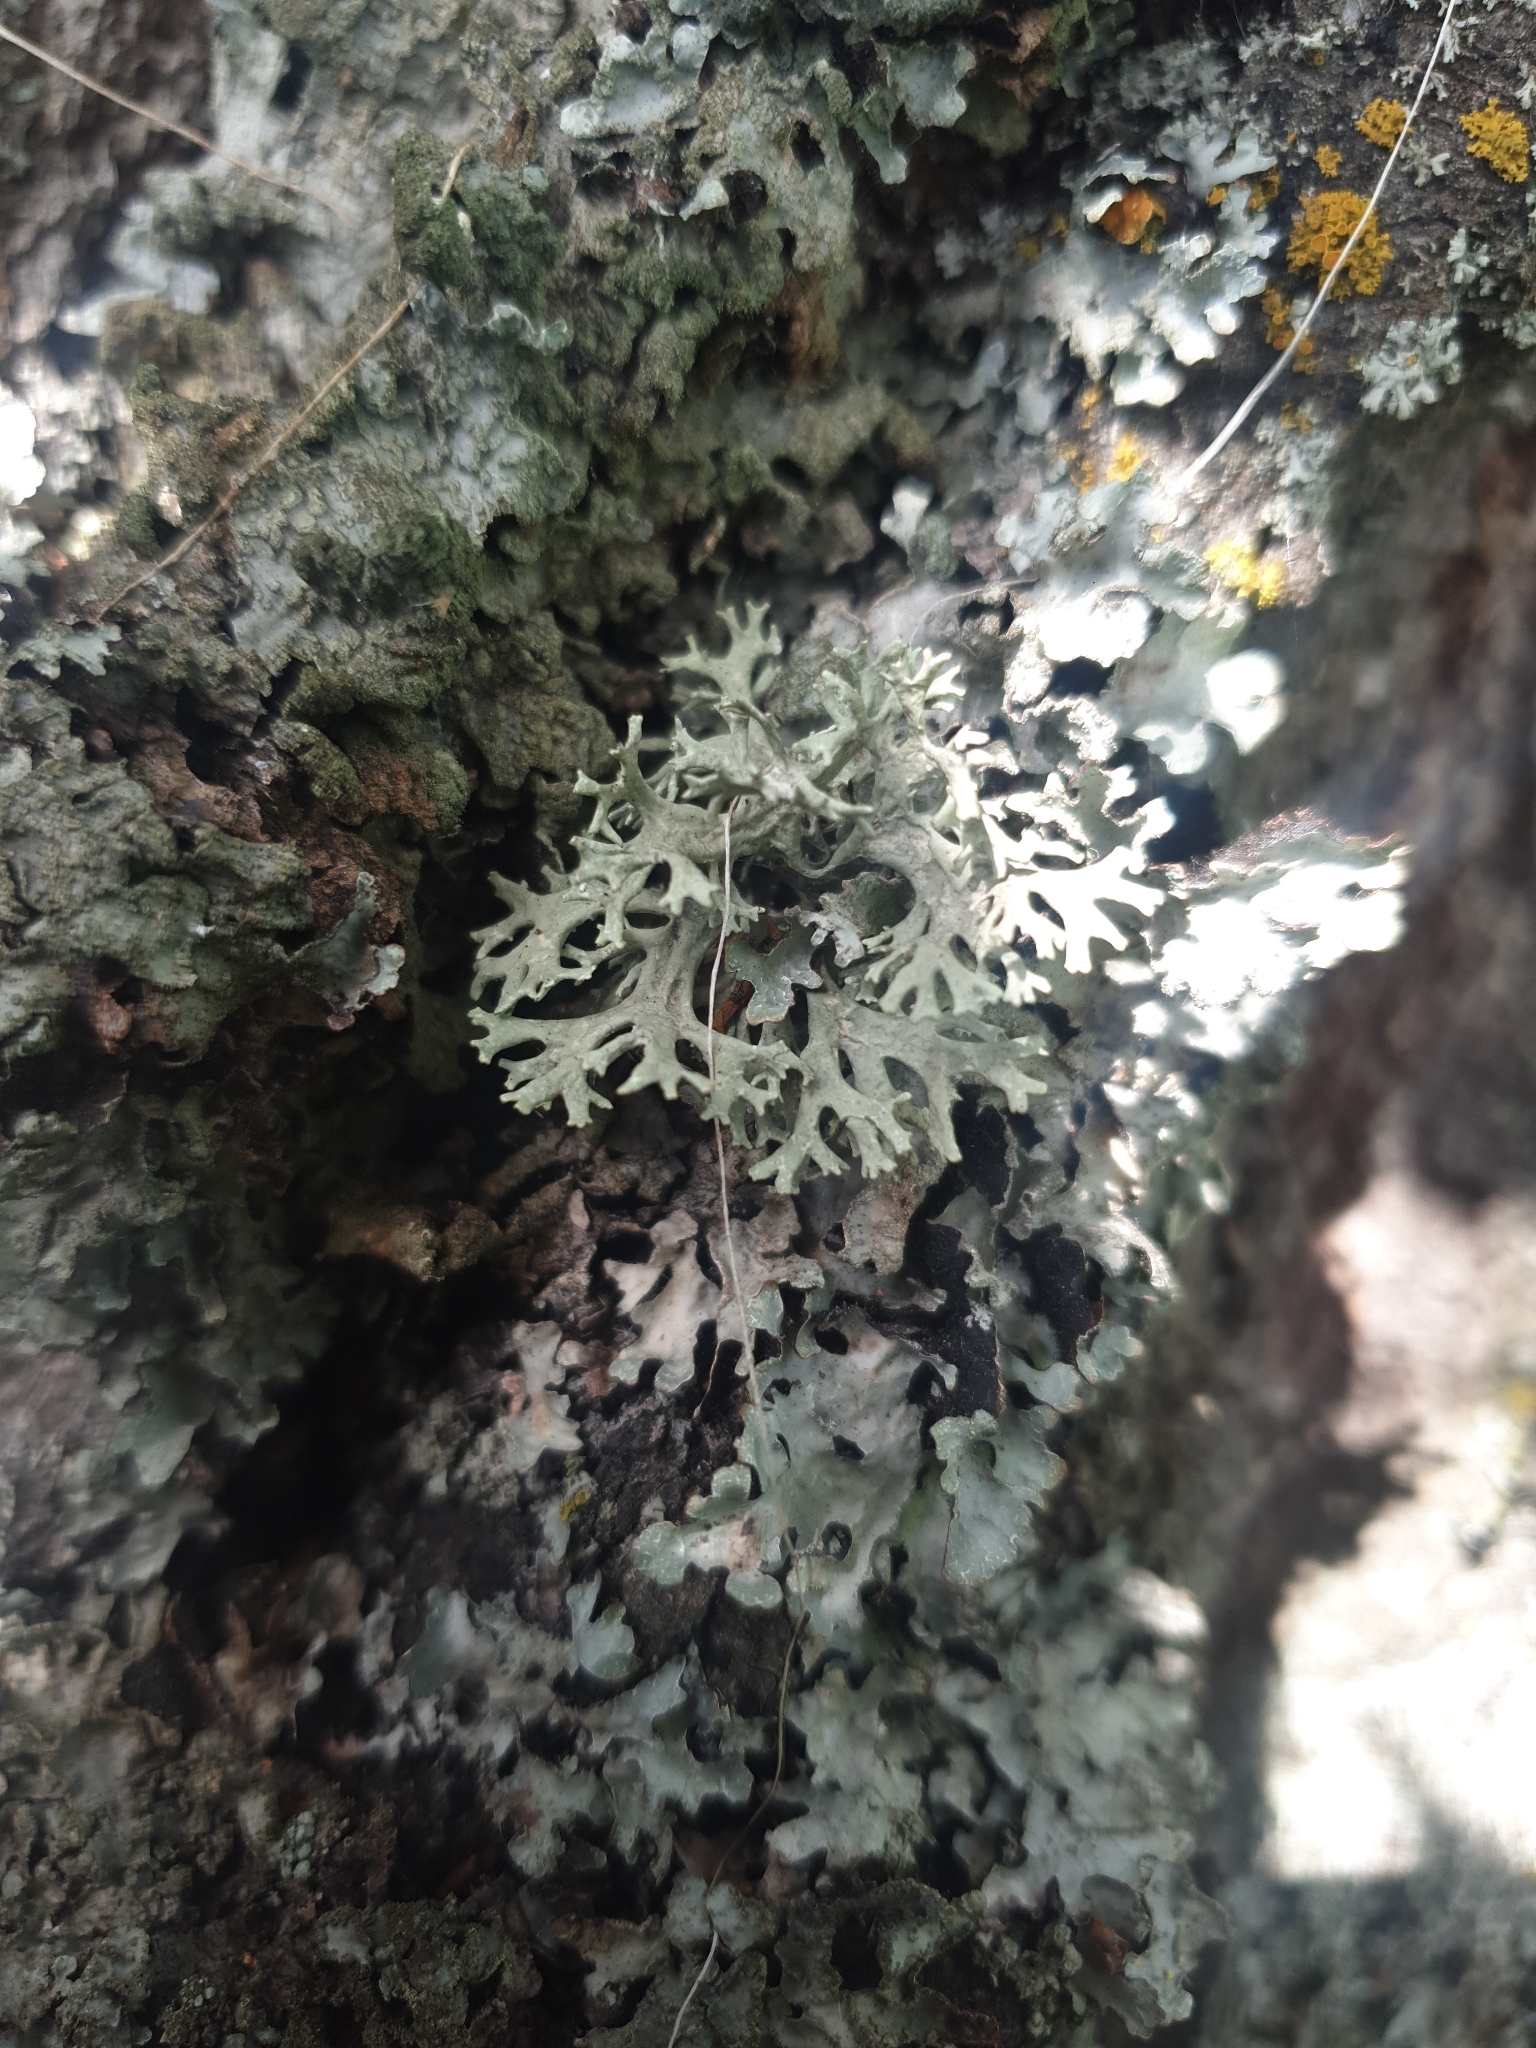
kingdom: Fungi
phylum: Ascomycota
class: Lecanoromycetes
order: Lecanorales
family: Parmeliaceae
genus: Evernia
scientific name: Evernia prunastri
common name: Oak moss
